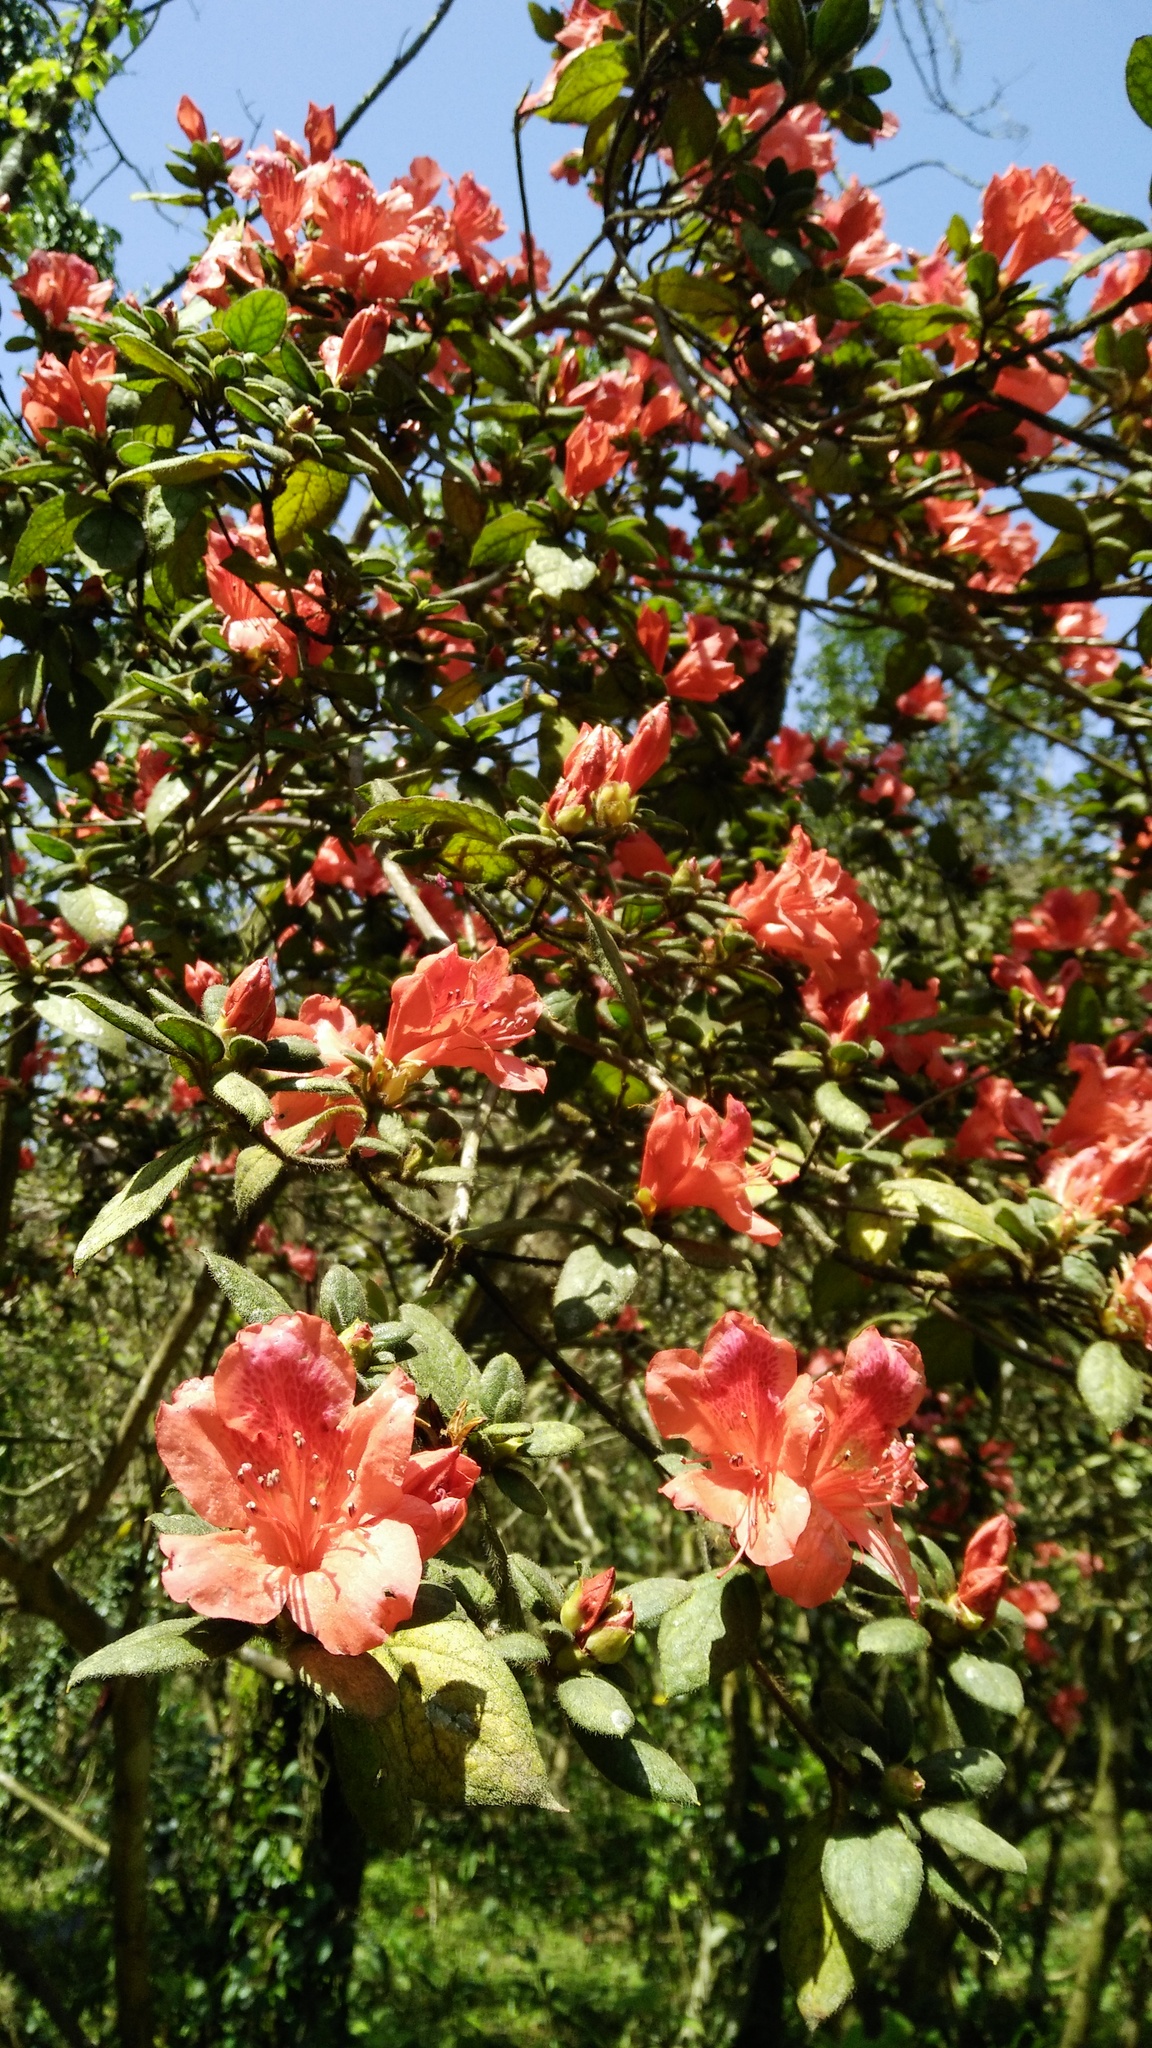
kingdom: Plantae
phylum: Tracheophyta
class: Magnoliopsida
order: Ericales
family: Ericaceae
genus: Rhododendron
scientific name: Rhododendron oldhamii
